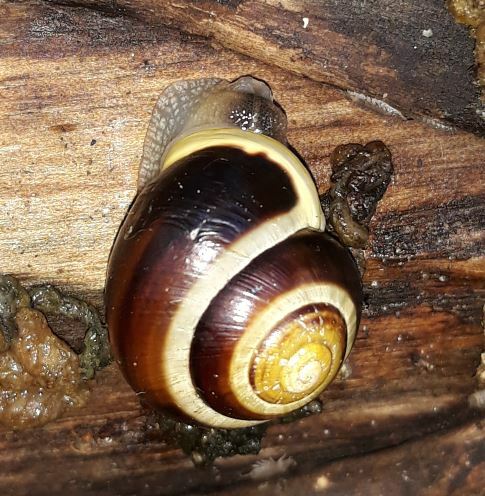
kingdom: Animalia
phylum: Mollusca
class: Gastropoda
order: Stylommatophora
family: Helicidae
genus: Cepaea
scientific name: Cepaea hortensis
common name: White-lip gardensnail
